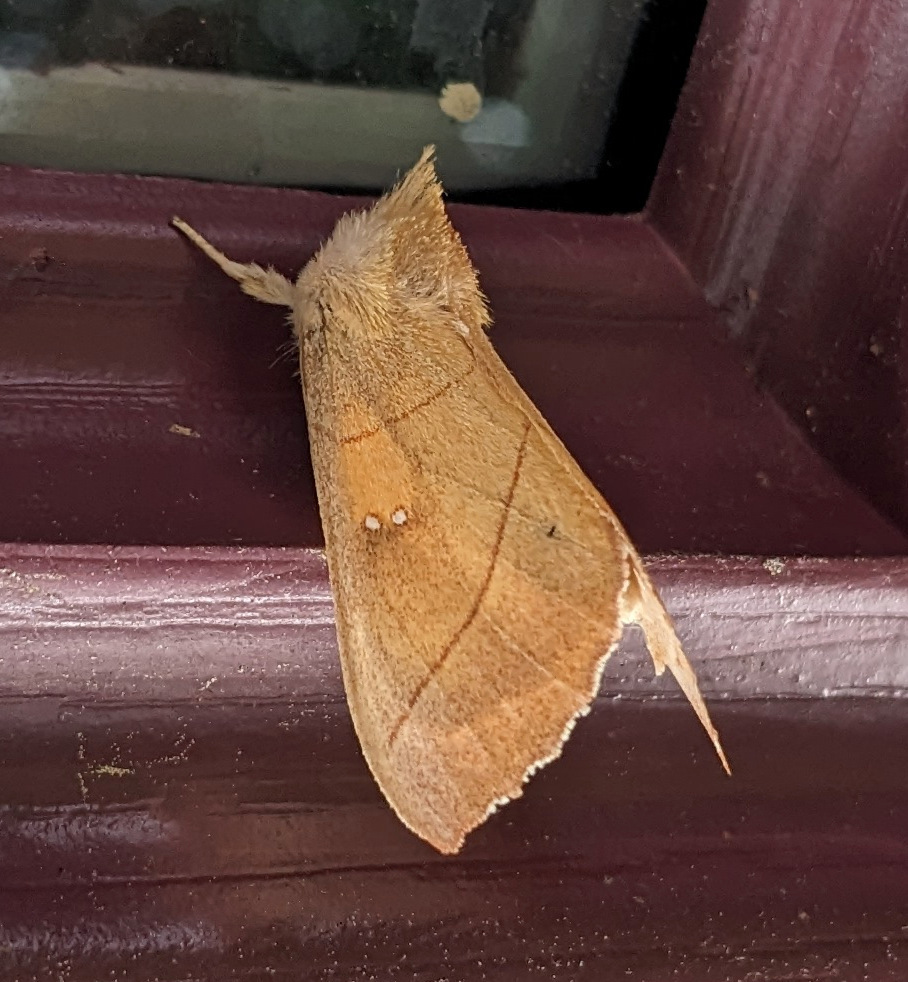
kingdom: Animalia
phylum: Arthropoda
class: Insecta
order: Lepidoptera
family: Notodontidae
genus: Nadata
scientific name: Nadata gibbosa
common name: White-dotted prominent
